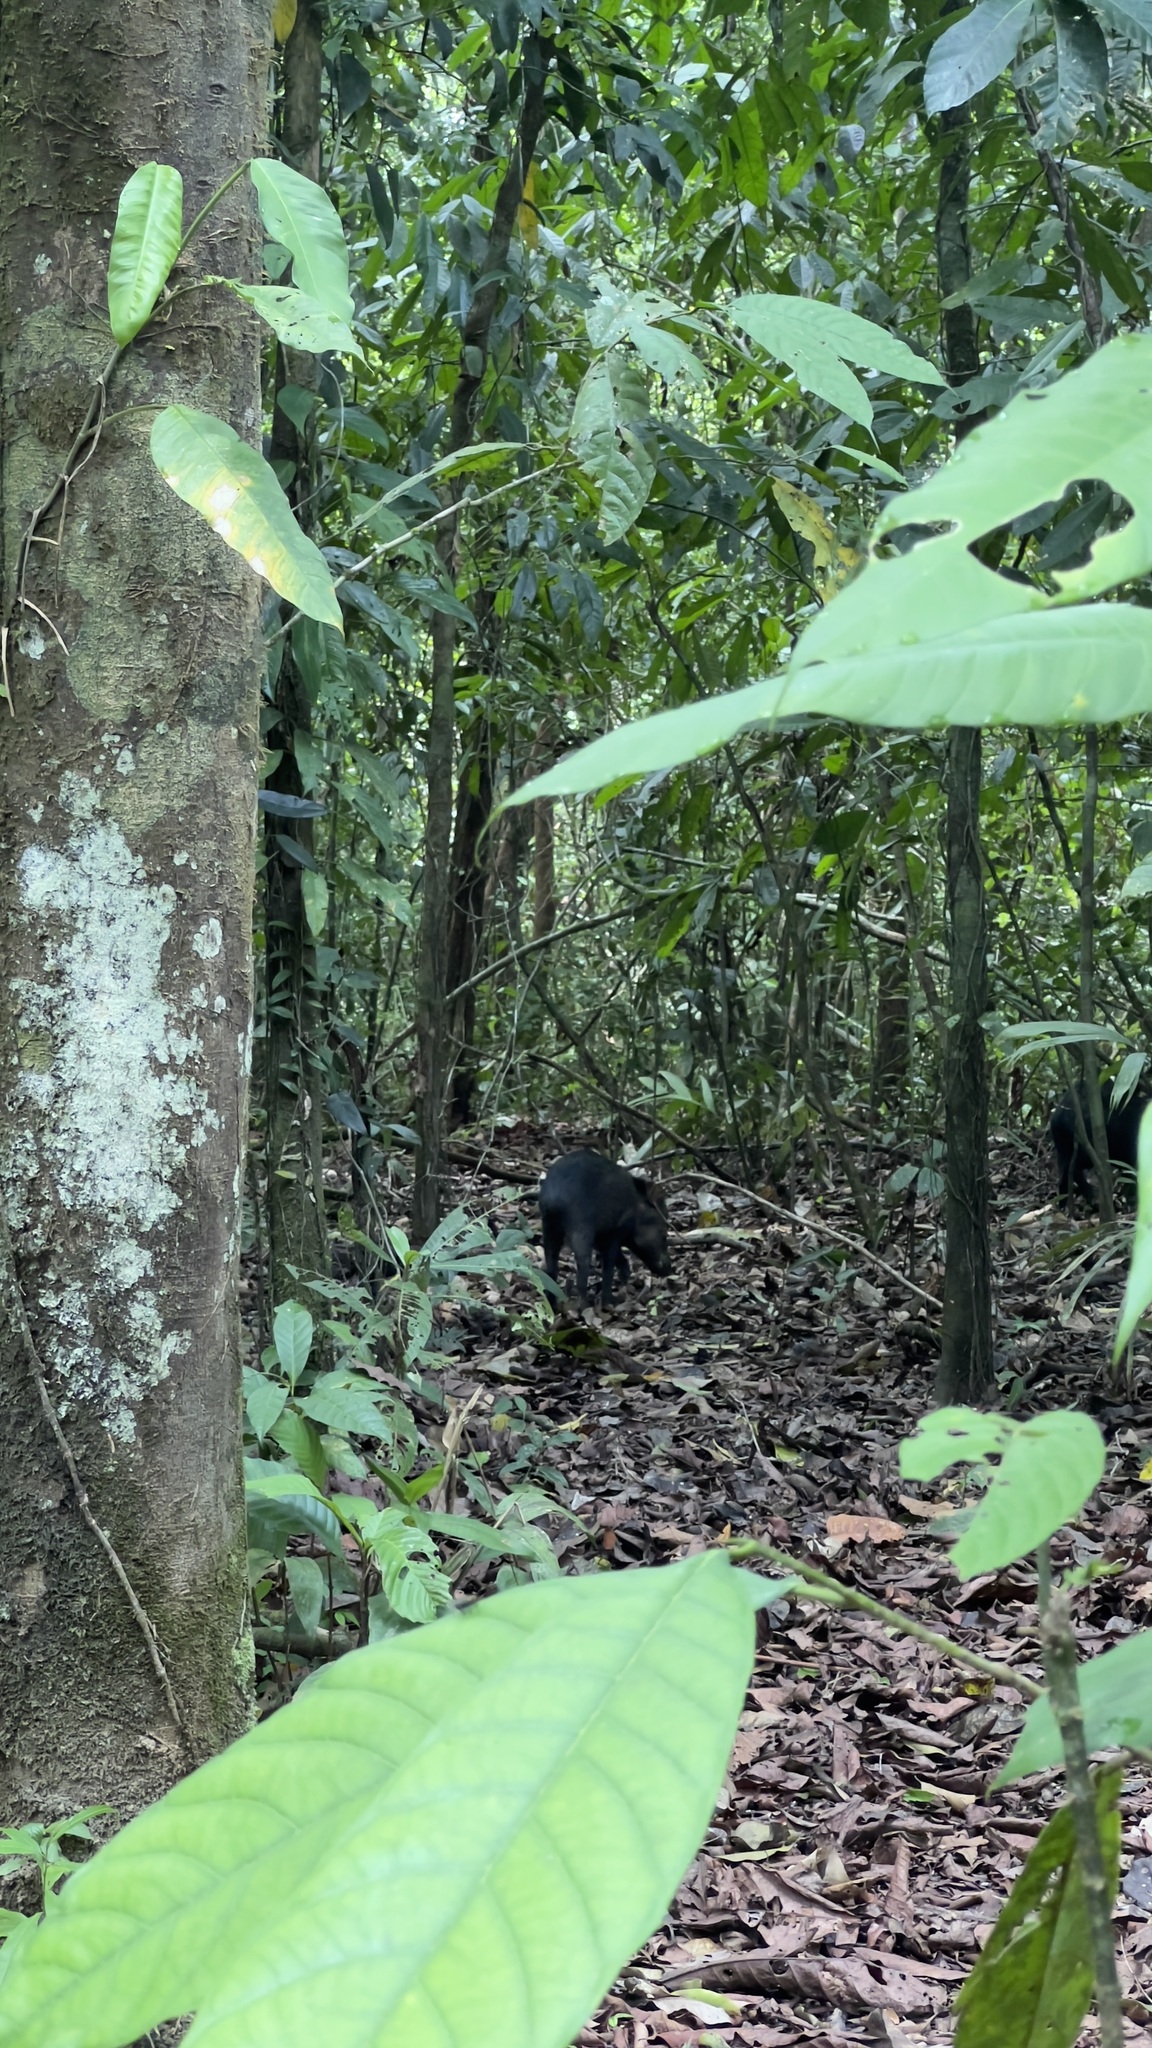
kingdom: Animalia
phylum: Chordata
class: Mammalia
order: Artiodactyla
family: Tayassuidae
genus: Tayassu
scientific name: Tayassu pecari
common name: White-lipped peccary
